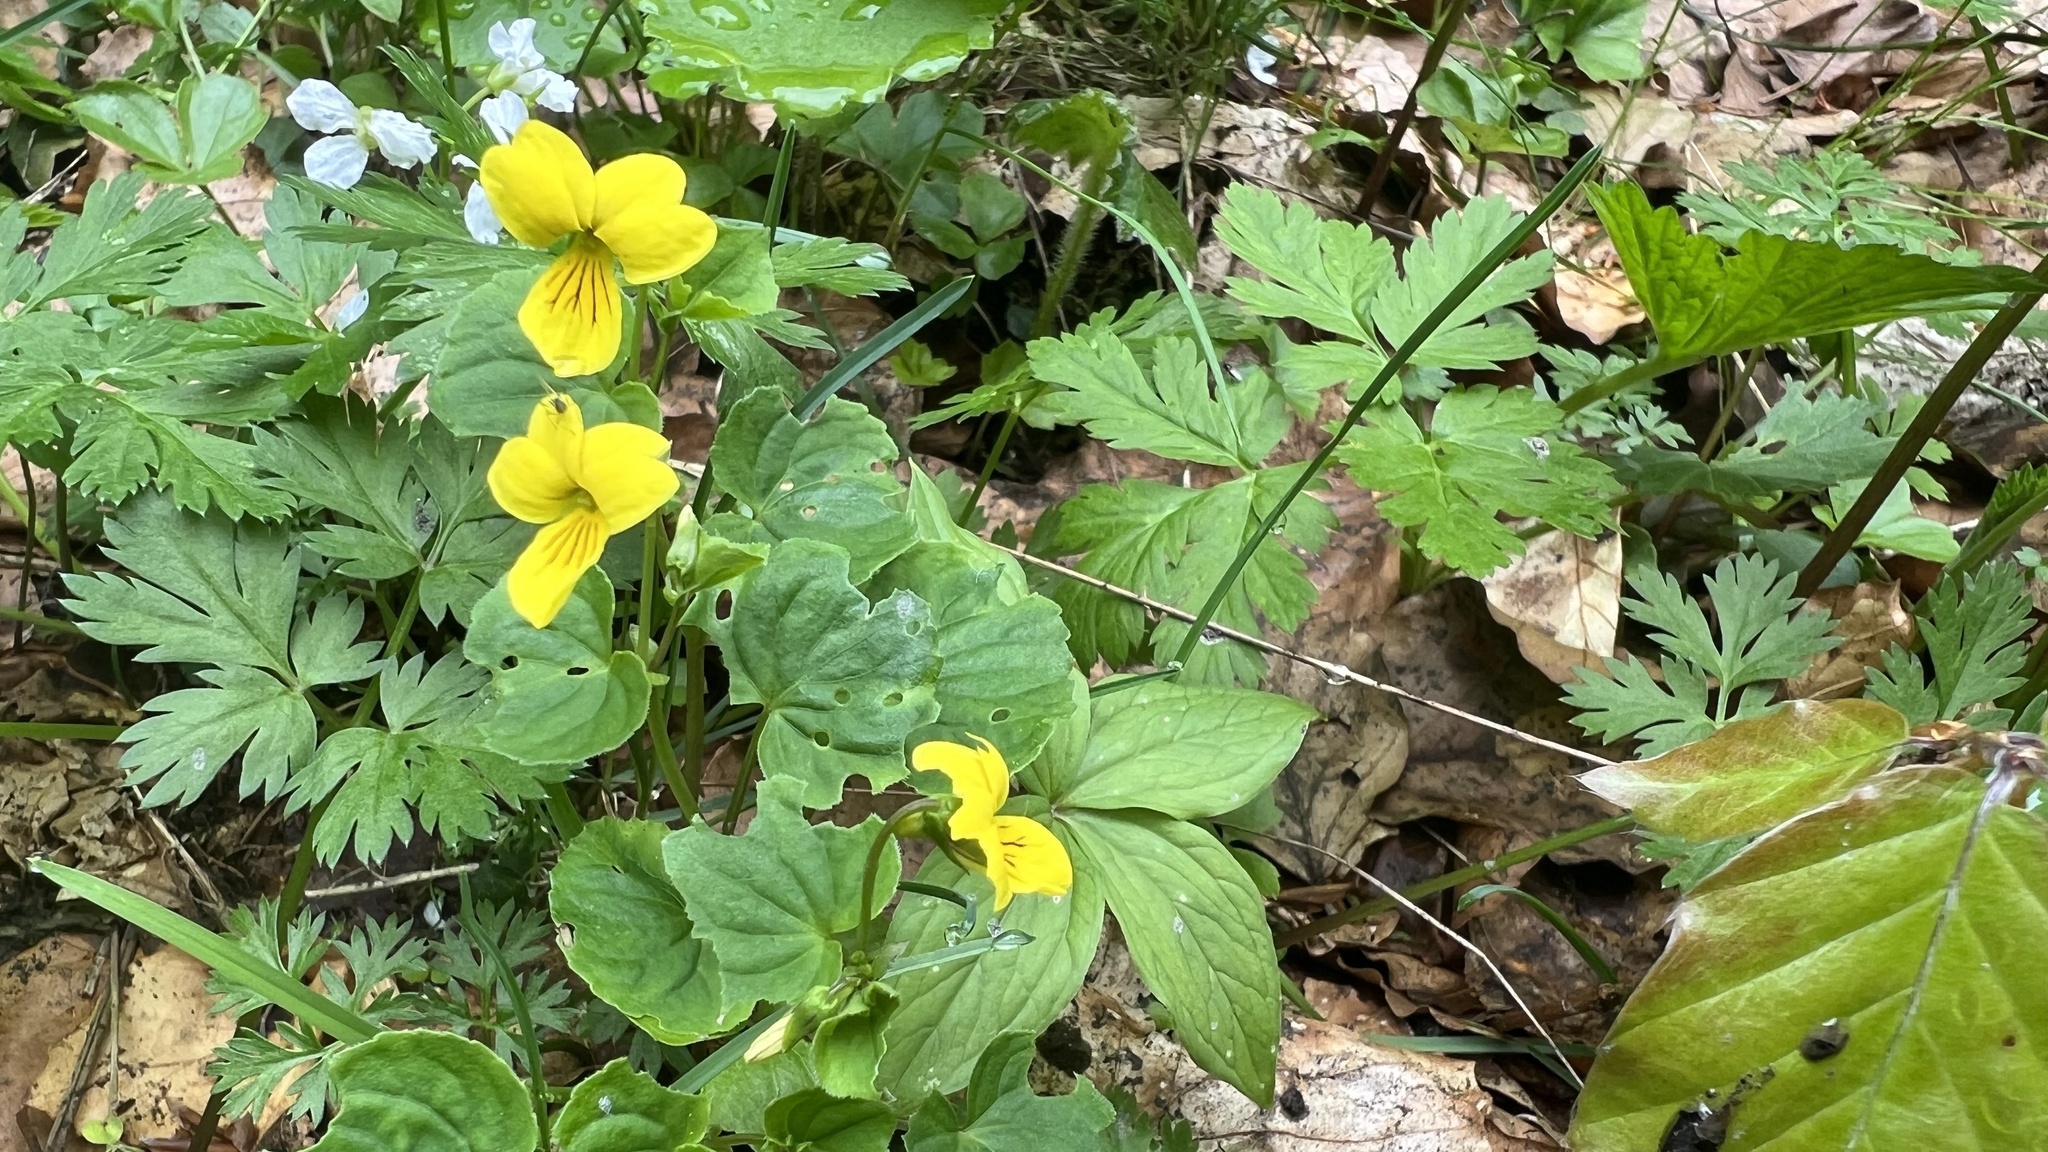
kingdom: Plantae
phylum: Tracheophyta
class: Magnoliopsida
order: Malpighiales
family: Violaceae
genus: Viola
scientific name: Viola biflora
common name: Alpine yellow violet
